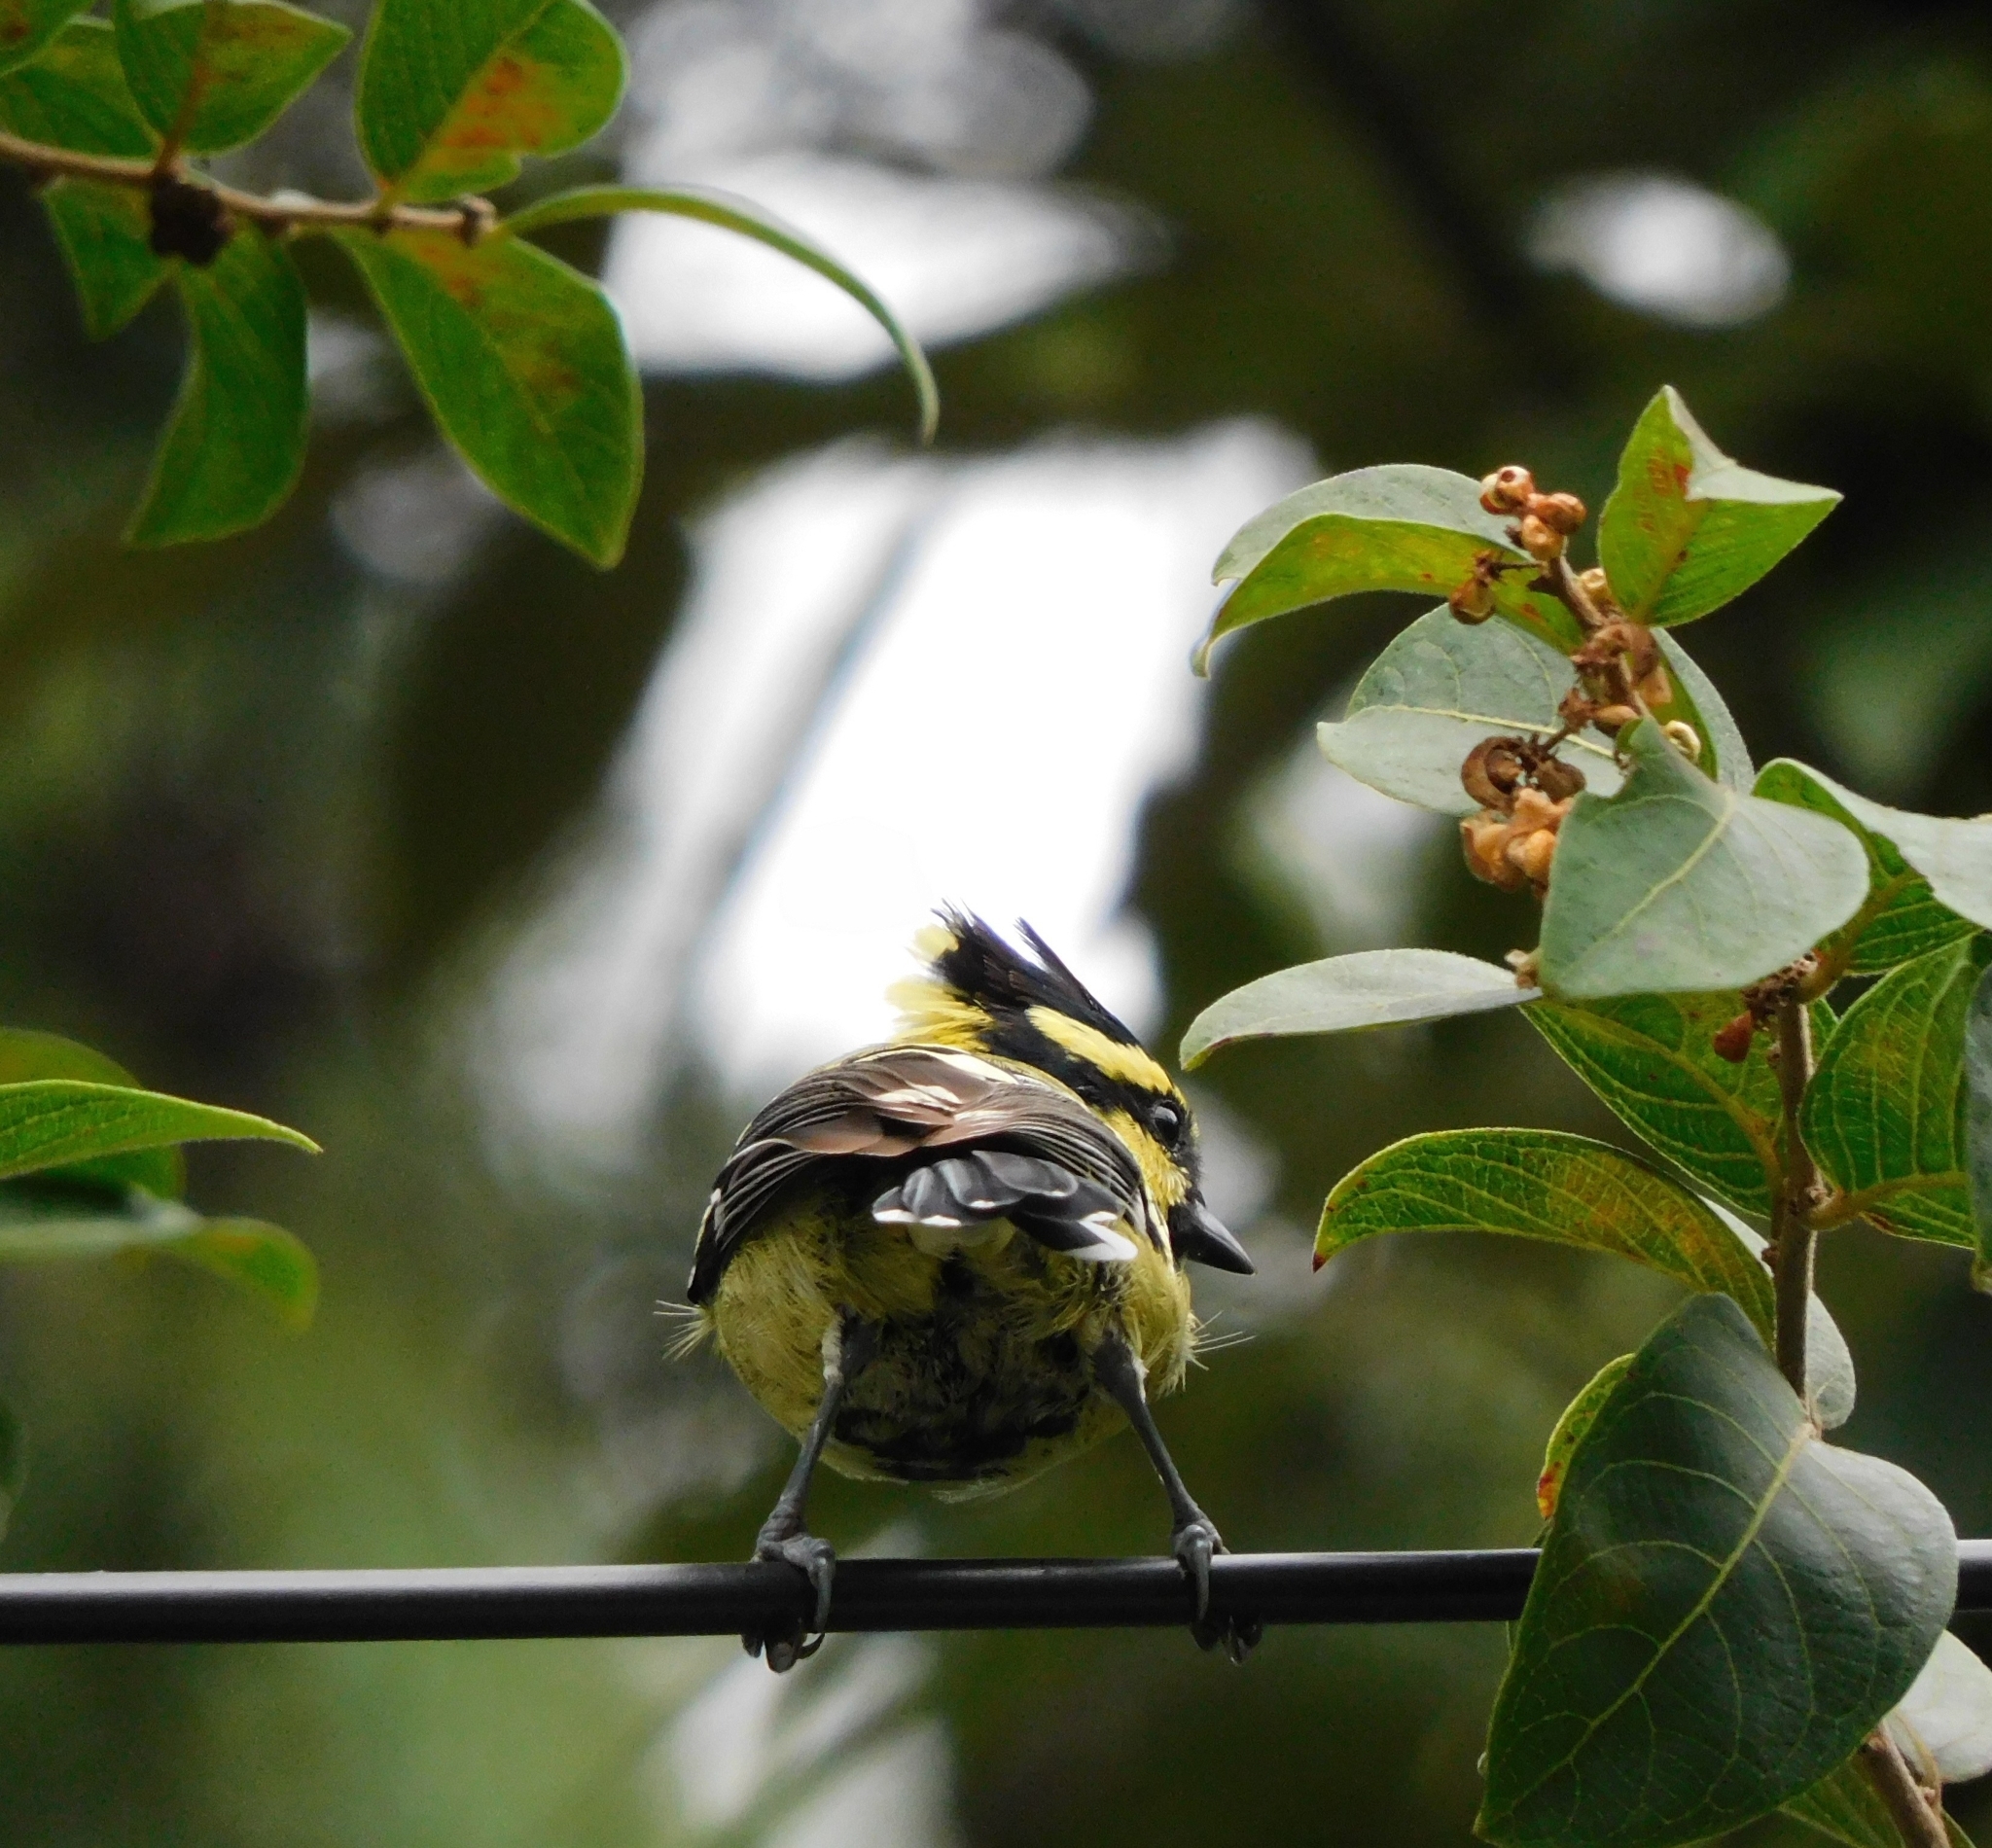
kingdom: Animalia
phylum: Chordata
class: Aves
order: Passeriformes
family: Paridae
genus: Parus
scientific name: Parus xanthogenys
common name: Black-lored tit
